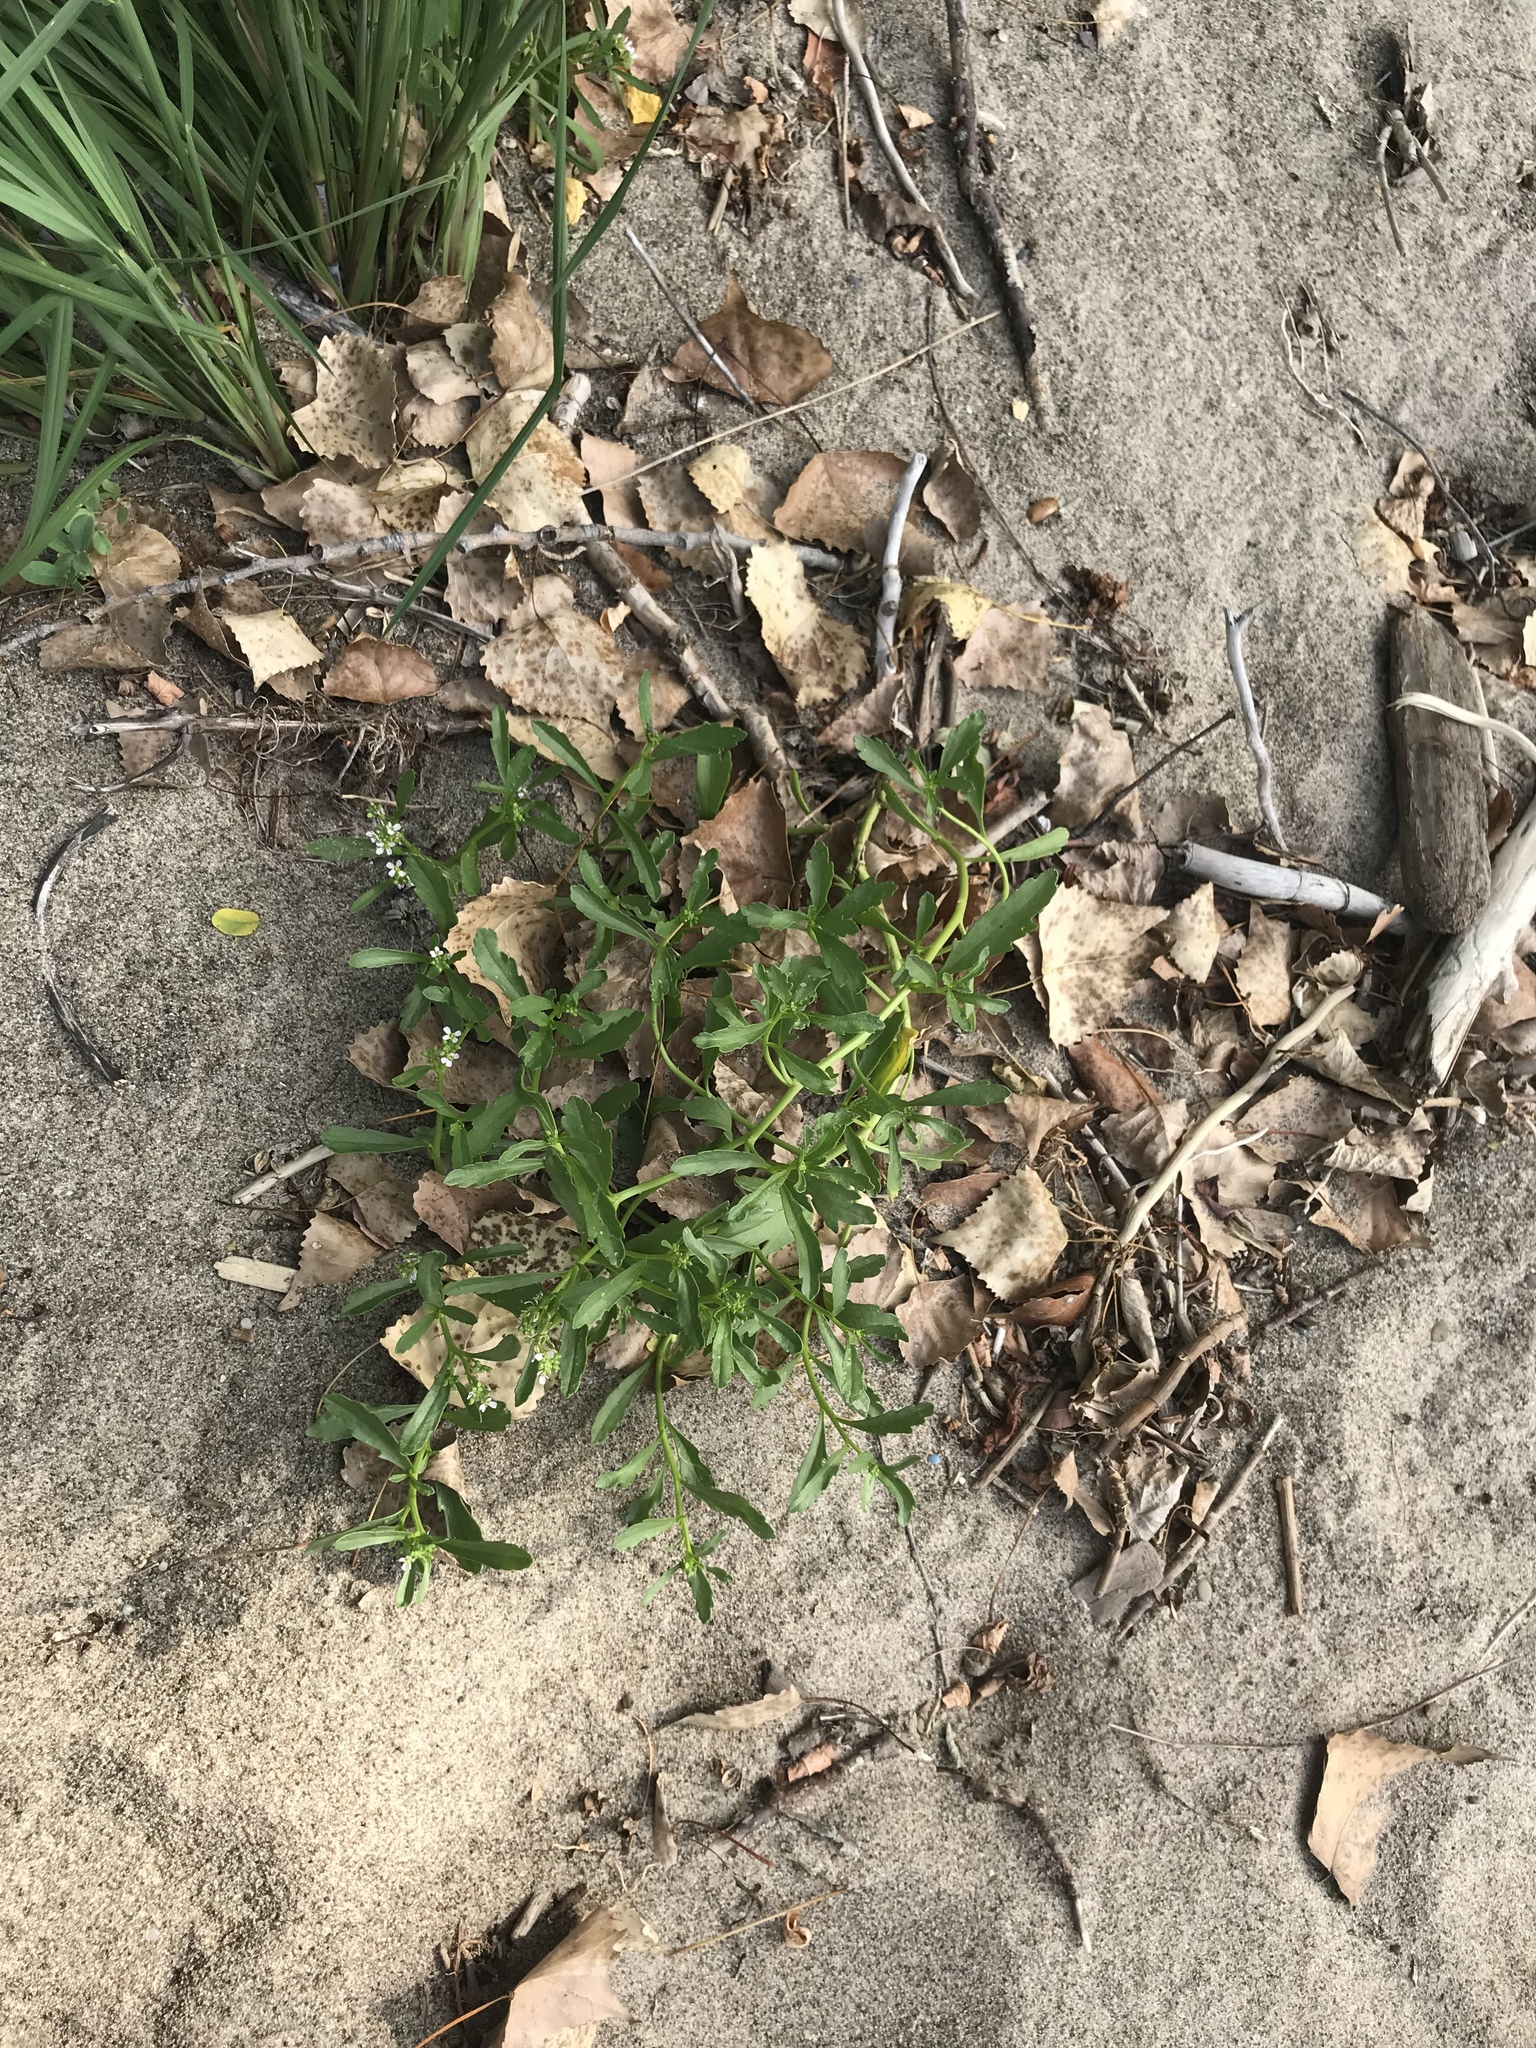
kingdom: Plantae
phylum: Tracheophyta
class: Magnoliopsida
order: Brassicales
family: Brassicaceae
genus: Cakile
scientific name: Cakile edentula
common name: American sea rocket
